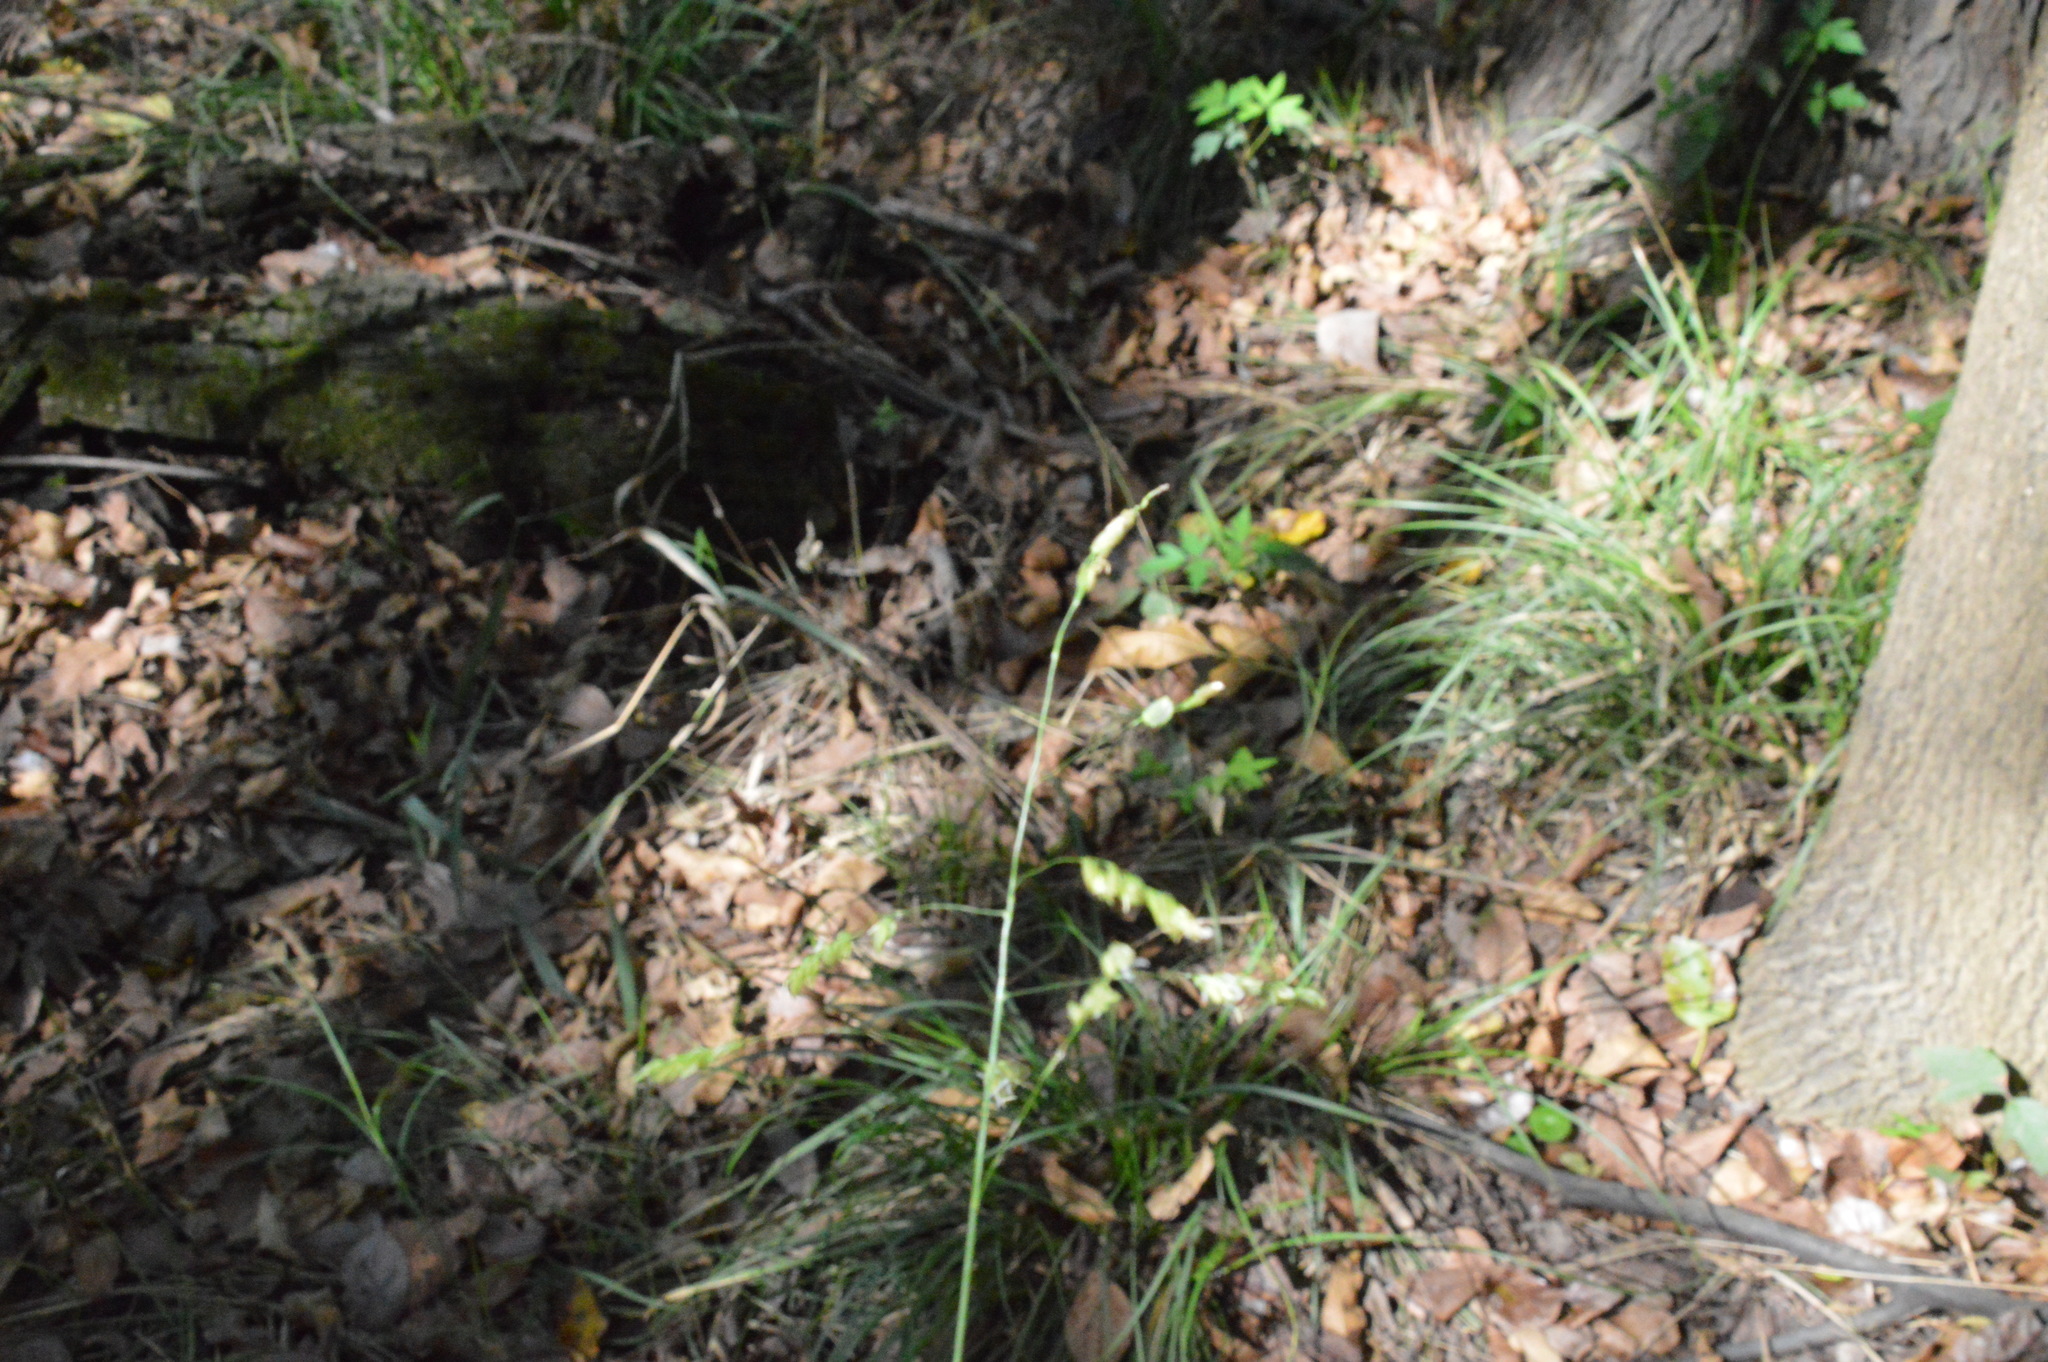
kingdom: Plantae
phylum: Tracheophyta
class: Liliopsida
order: Poales
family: Poaceae
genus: Leersia
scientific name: Leersia lenticularis
